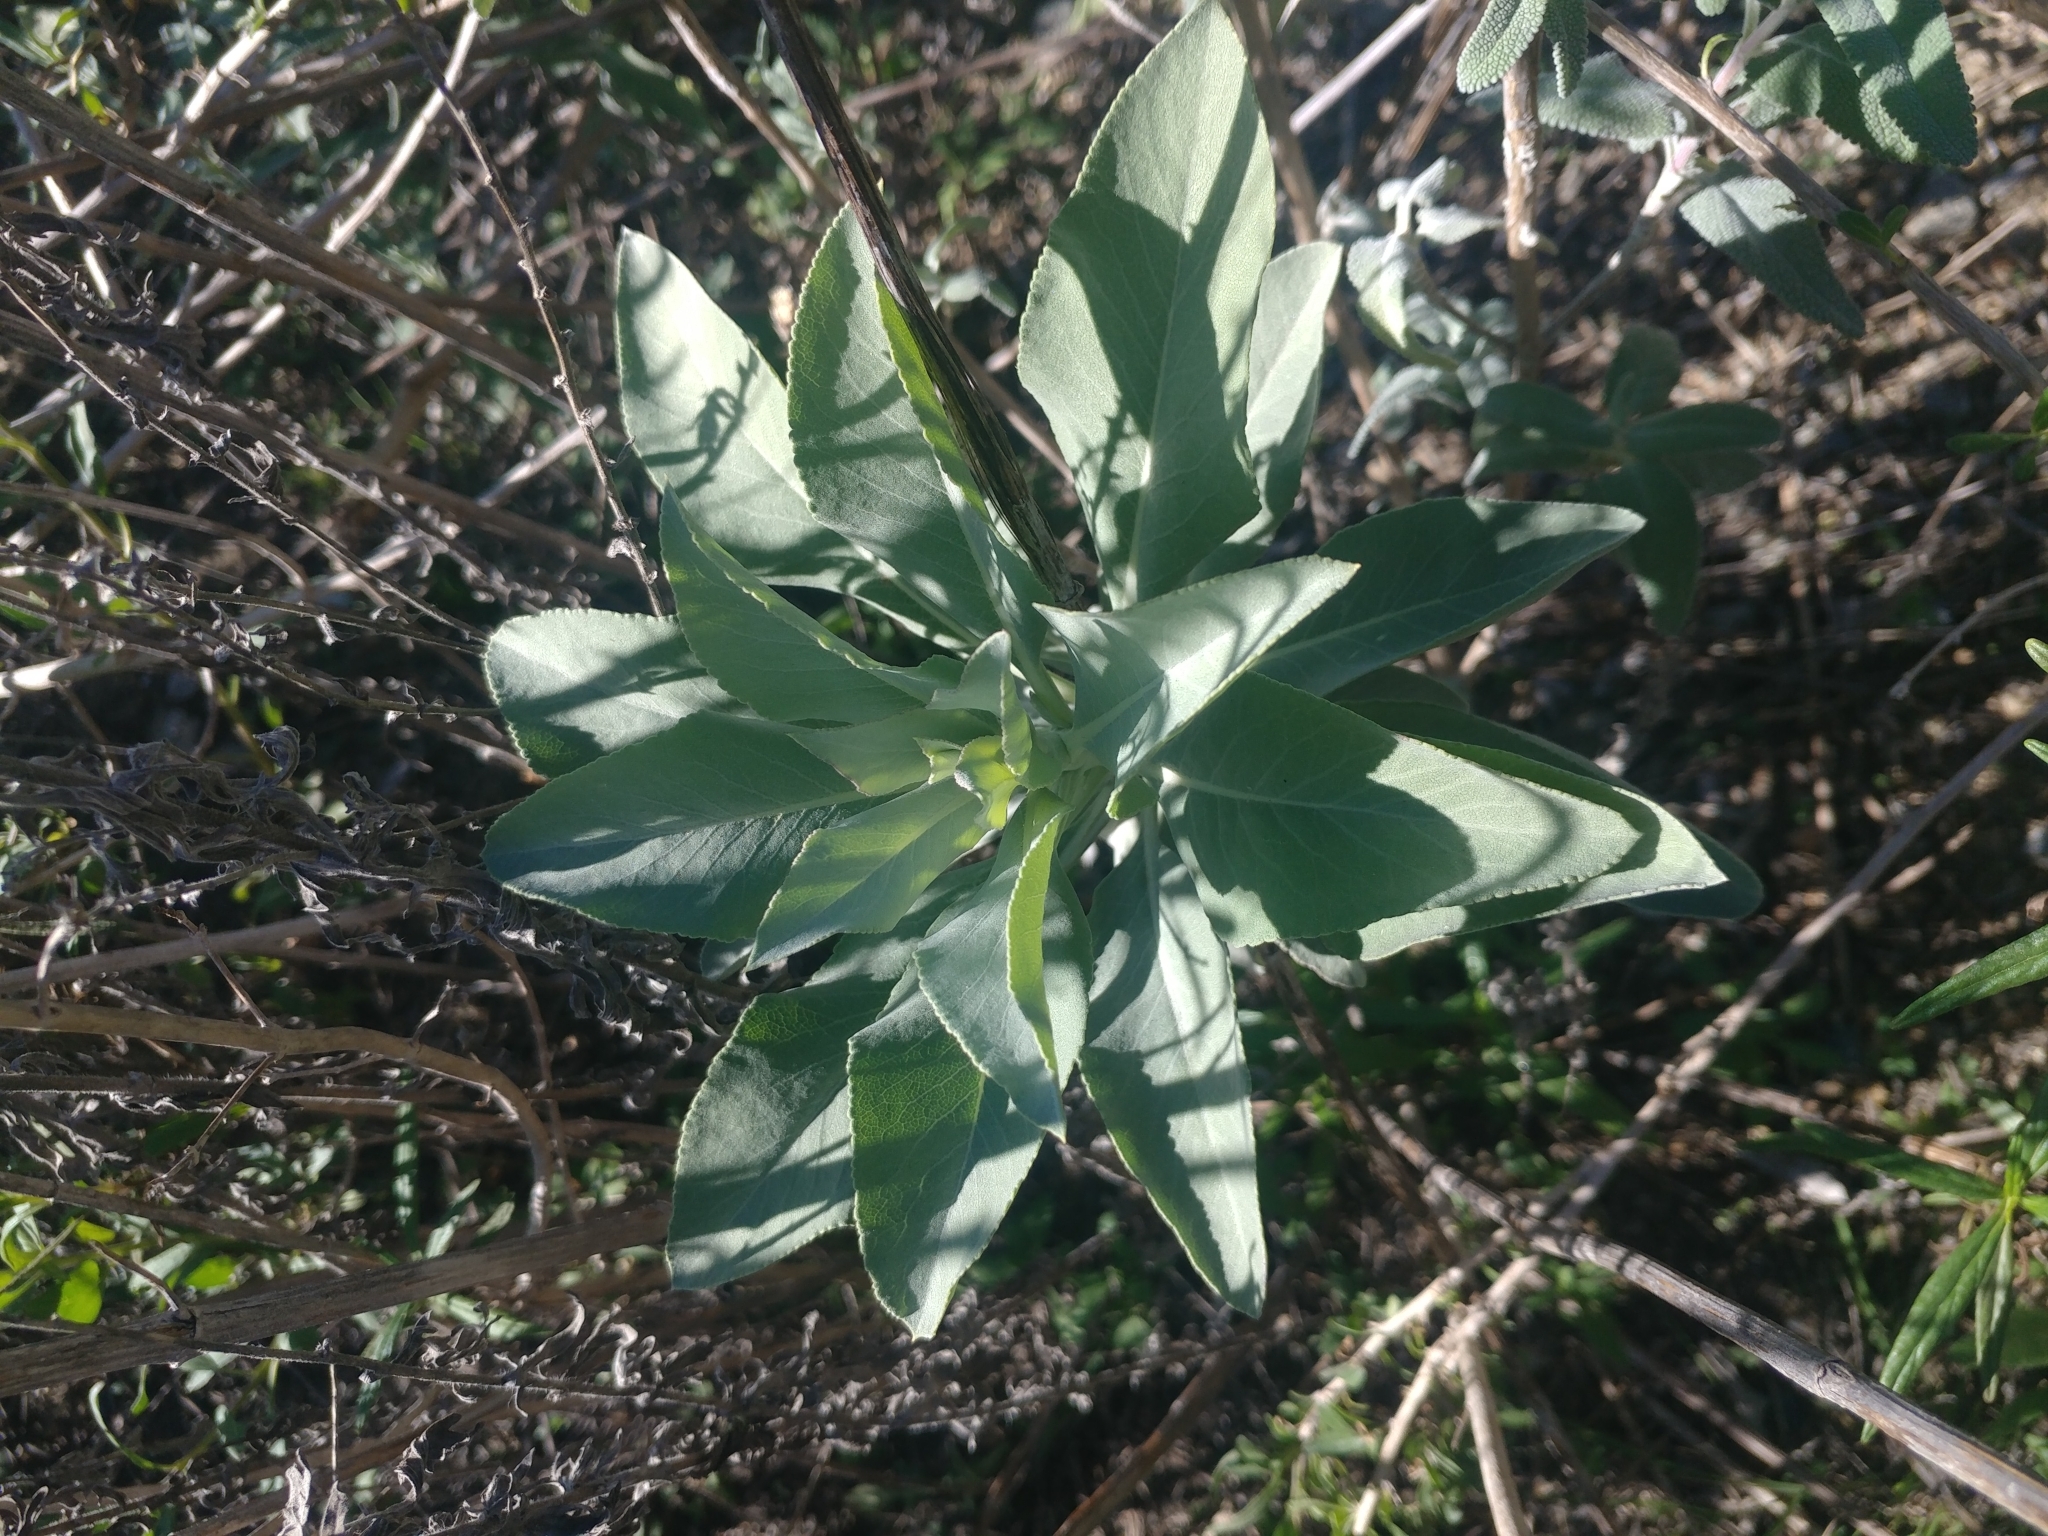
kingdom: Plantae
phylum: Tracheophyta
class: Magnoliopsida
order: Lamiales
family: Lamiaceae
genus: Salvia
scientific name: Salvia apiana
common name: White sage
